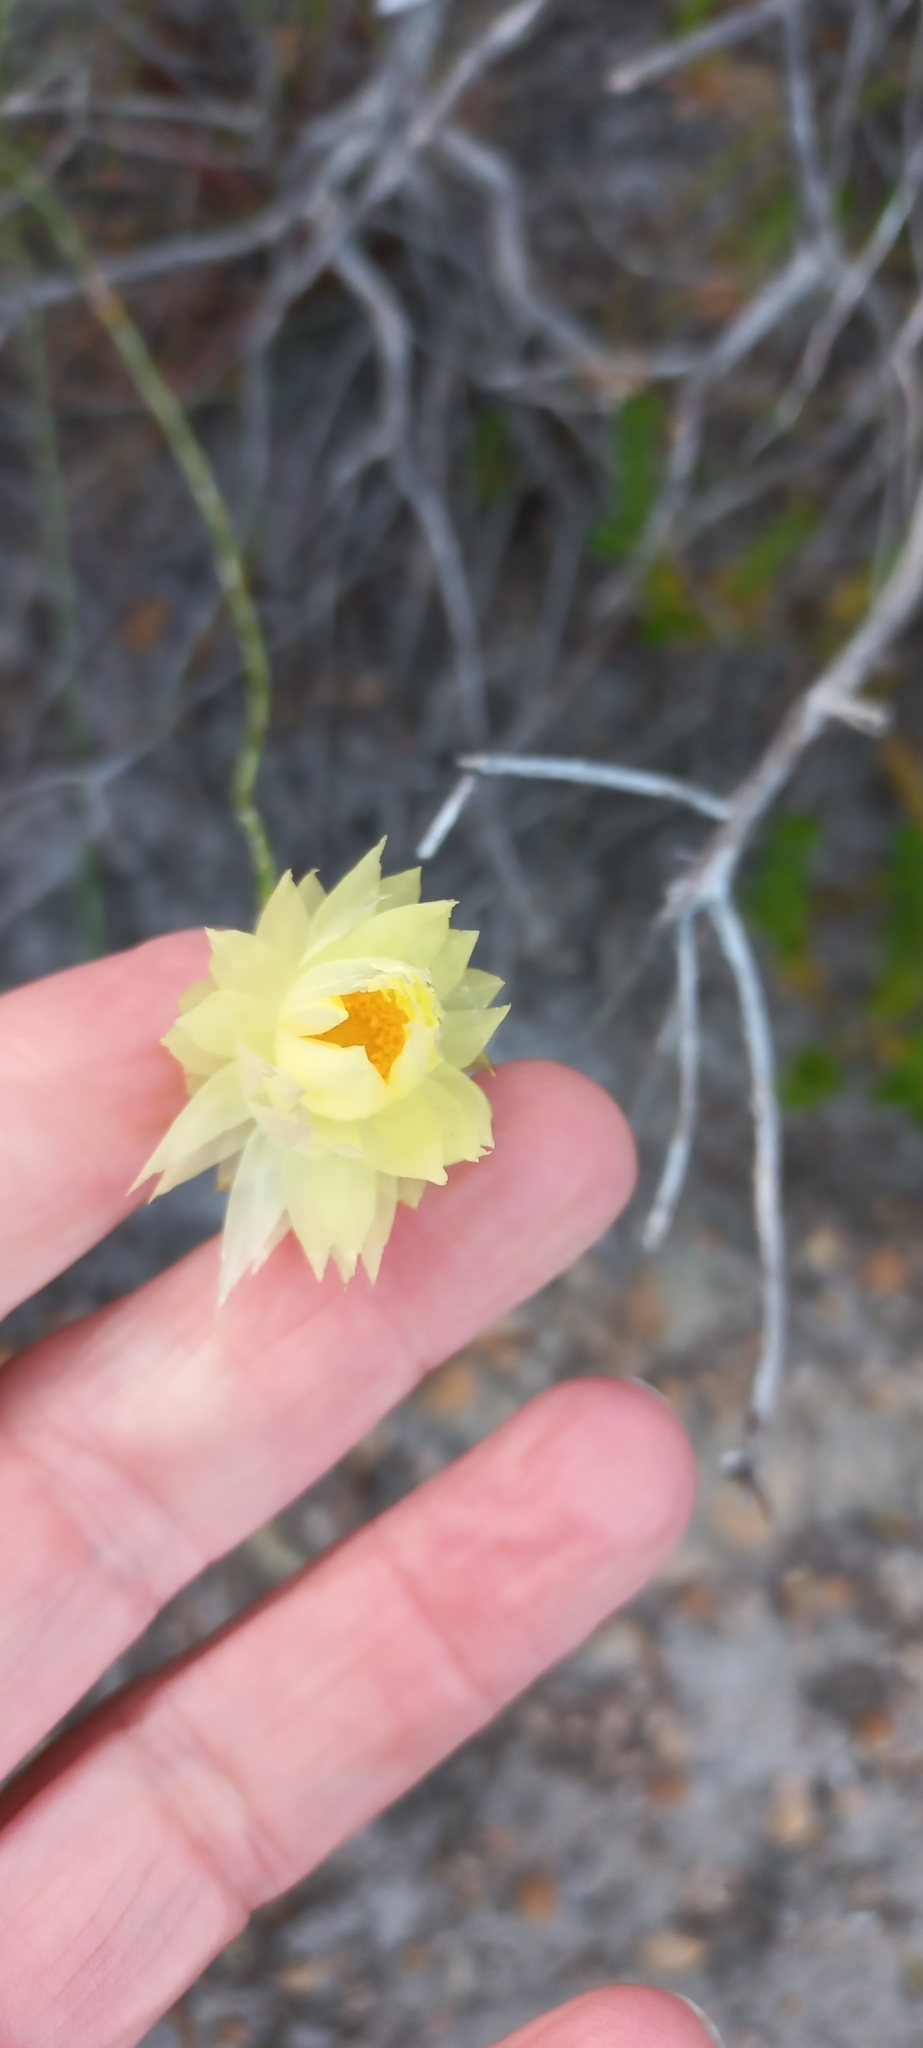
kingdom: Plantae
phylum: Tracheophyta
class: Magnoliopsida
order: Asterales
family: Asteraceae
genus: Edmondia
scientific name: Edmondia sesamoides
